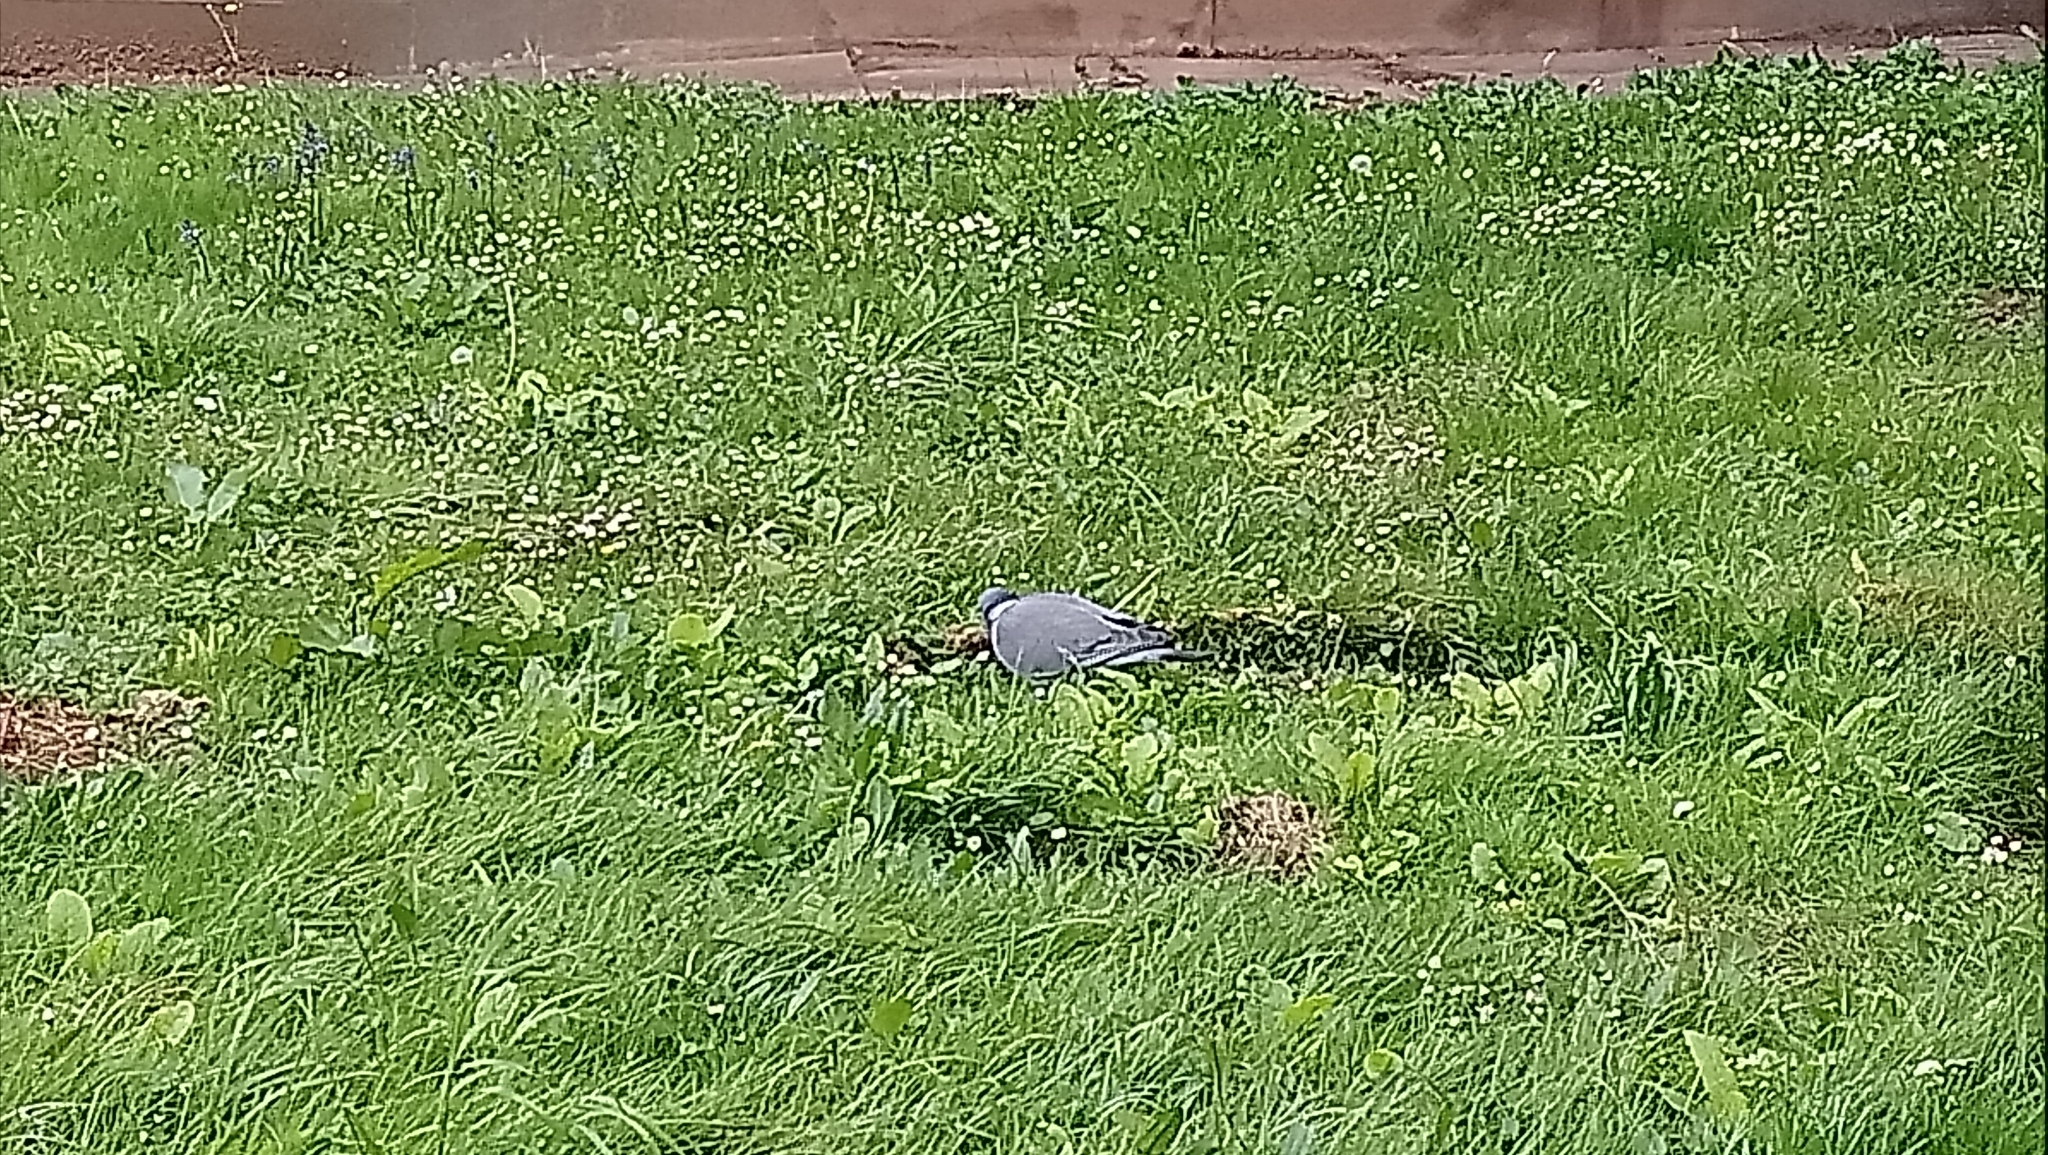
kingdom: Animalia
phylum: Chordata
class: Aves
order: Columbiformes
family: Columbidae
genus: Columba
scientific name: Columba palumbus
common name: Common wood pigeon
